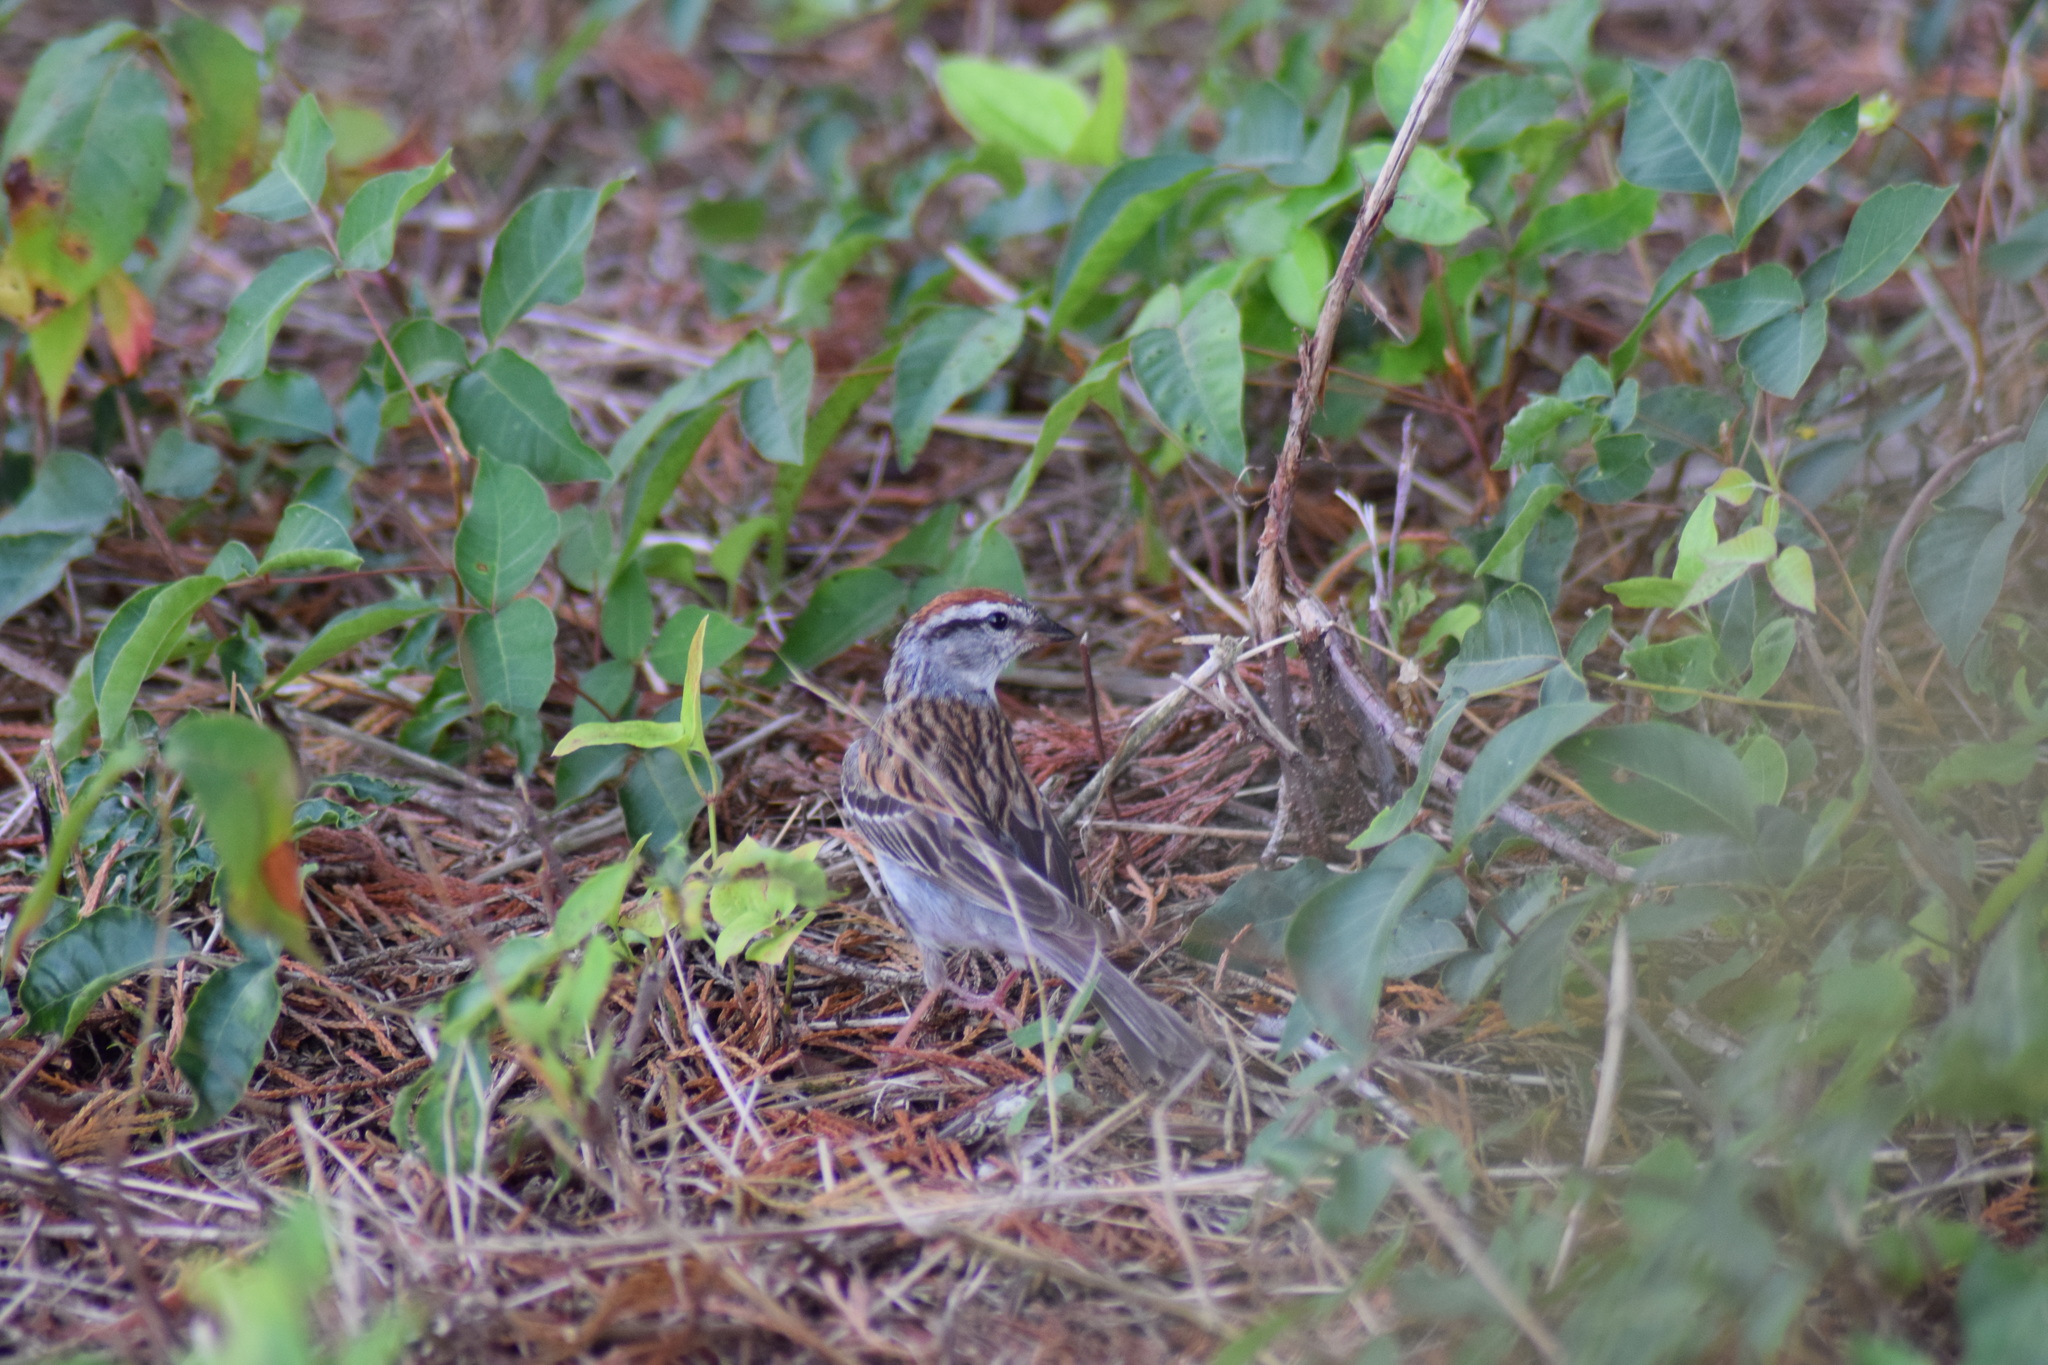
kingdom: Animalia
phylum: Chordata
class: Aves
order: Passeriformes
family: Passerellidae
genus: Spizella
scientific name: Spizella passerina
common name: Chipping sparrow
